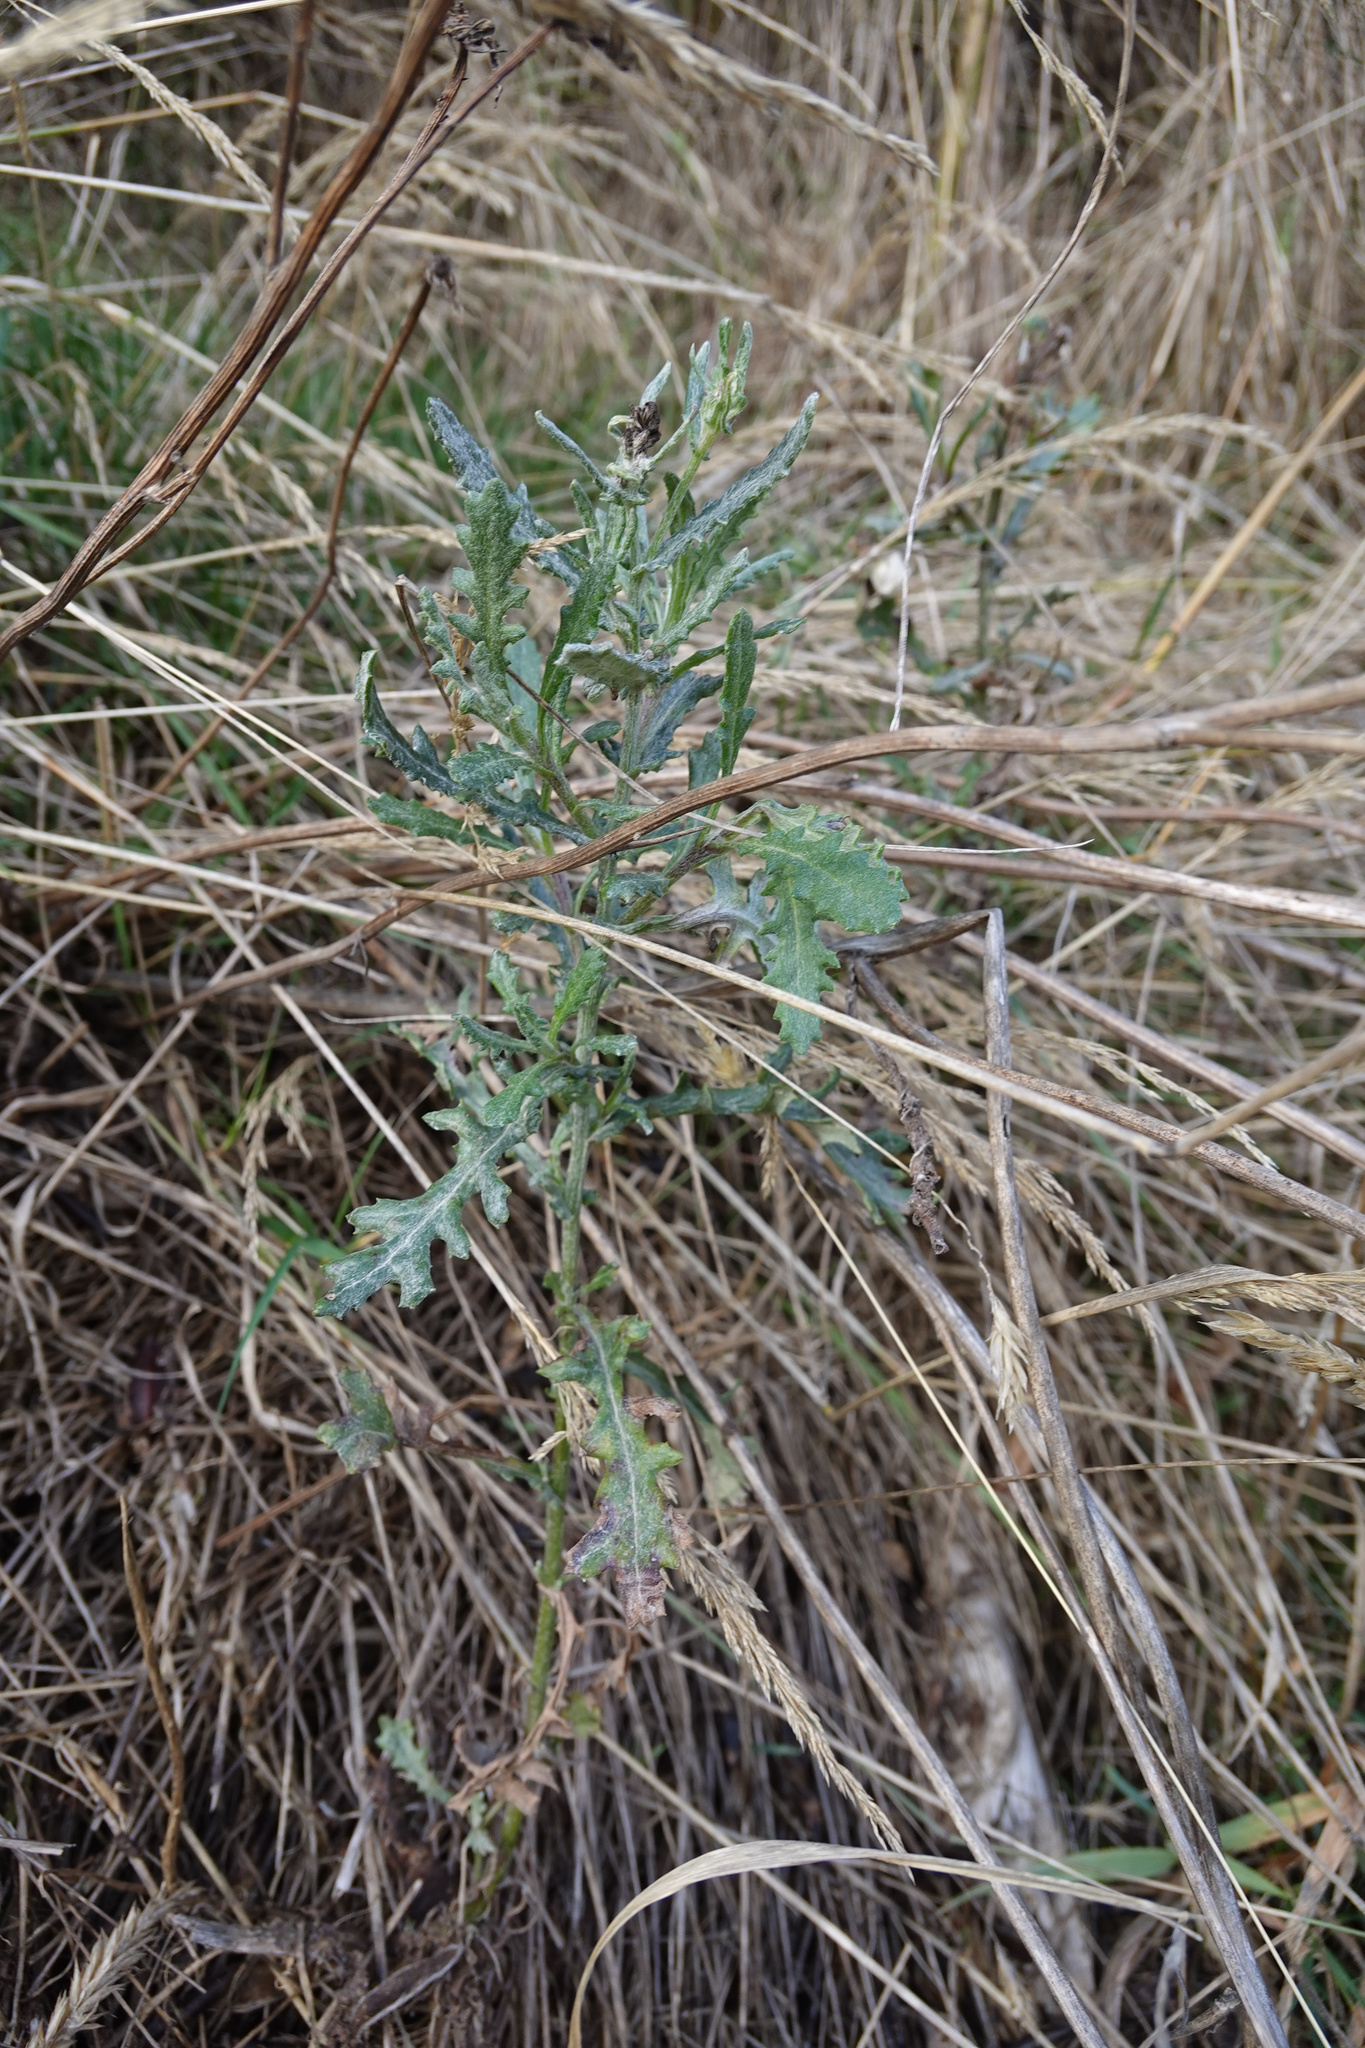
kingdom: Plantae
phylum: Tracheophyta
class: Magnoliopsida
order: Asterales
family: Asteraceae
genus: Senecio
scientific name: Senecio glomeratus
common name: Cutleaf burnweed
